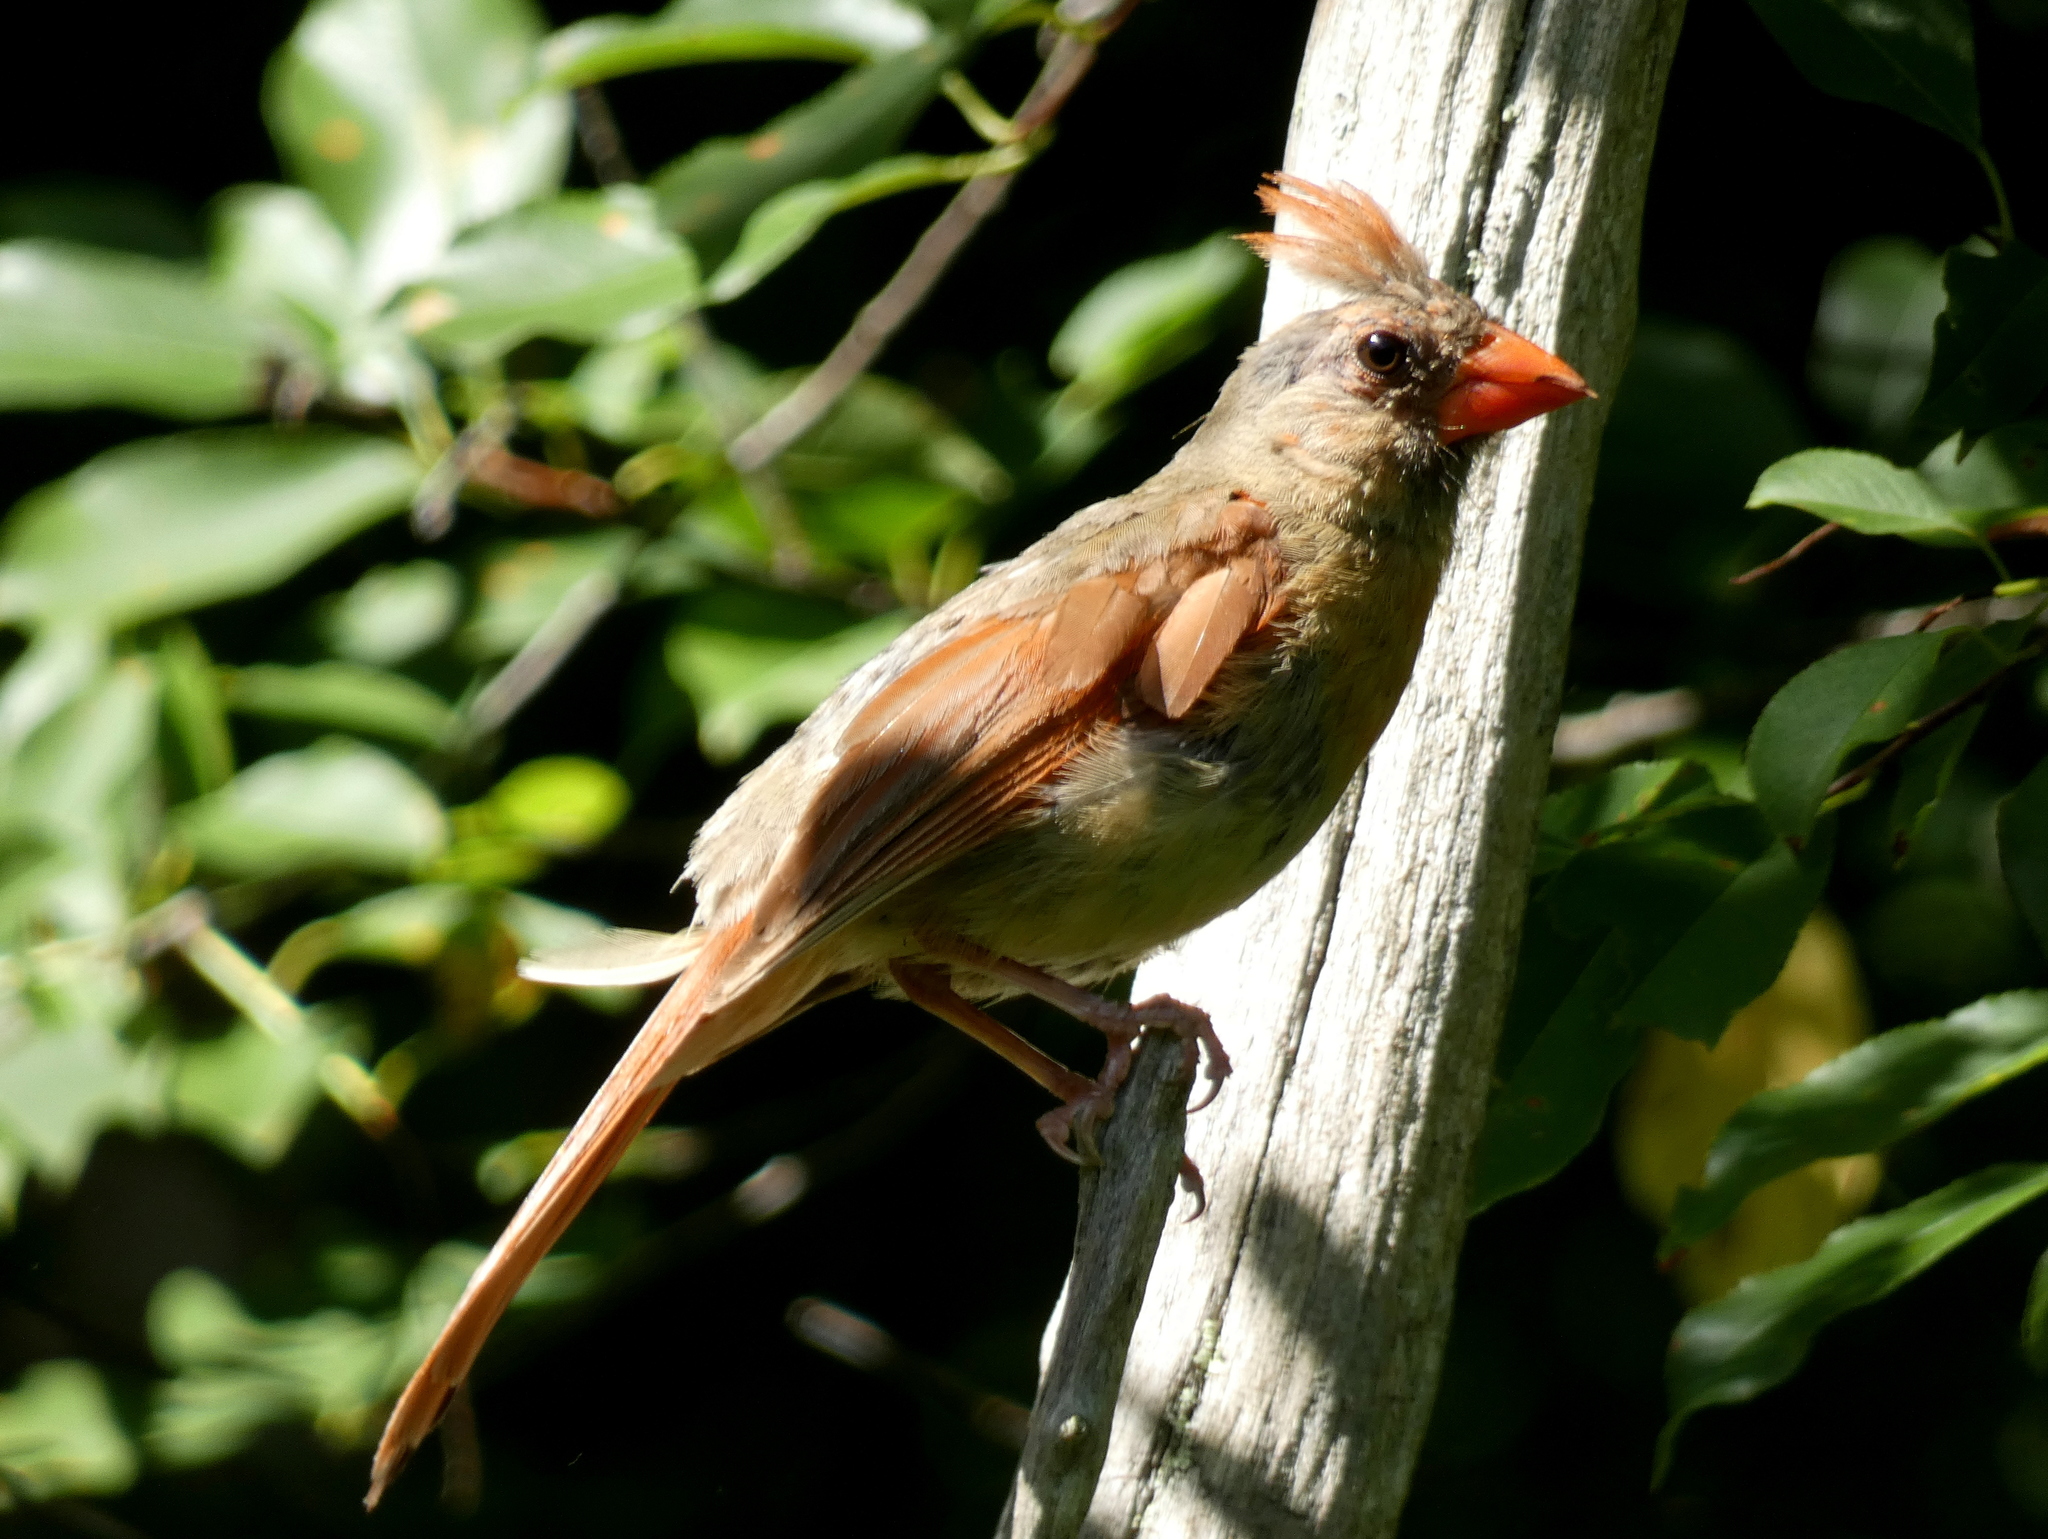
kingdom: Animalia
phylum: Chordata
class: Aves
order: Passeriformes
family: Cardinalidae
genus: Cardinalis
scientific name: Cardinalis cardinalis
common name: Northern cardinal
